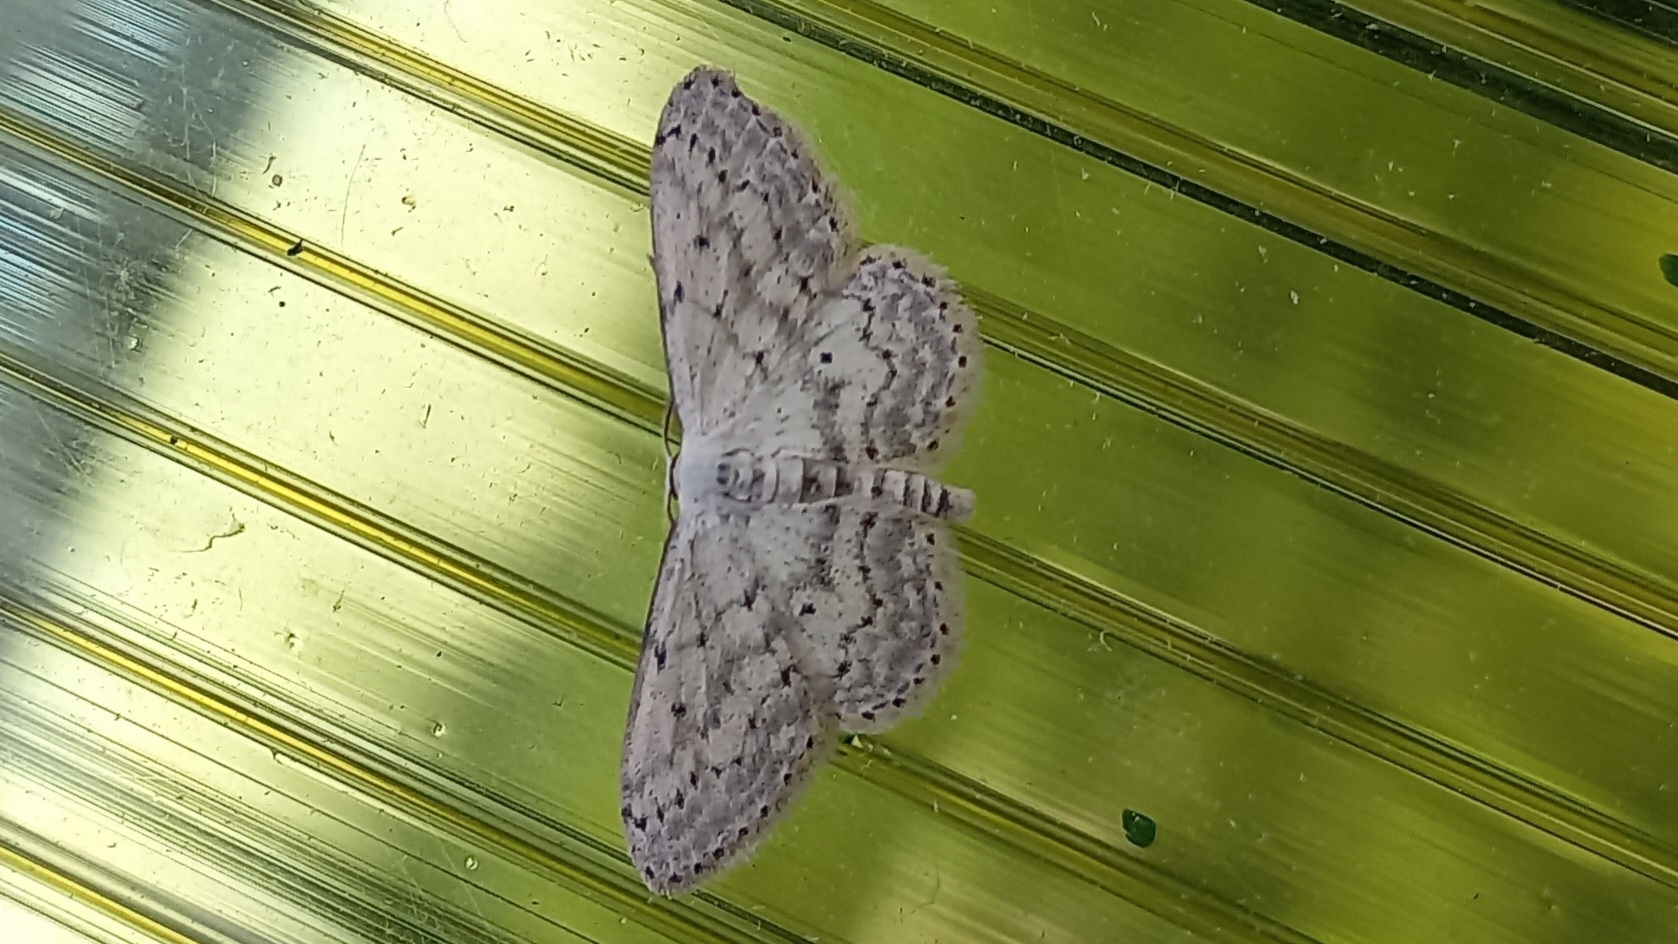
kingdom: Animalia
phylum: Arthropoda
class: Insecta
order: Lepidoptera
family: Geometridae
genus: Idaea
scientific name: Idaea seriata
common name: Small dusty wave
